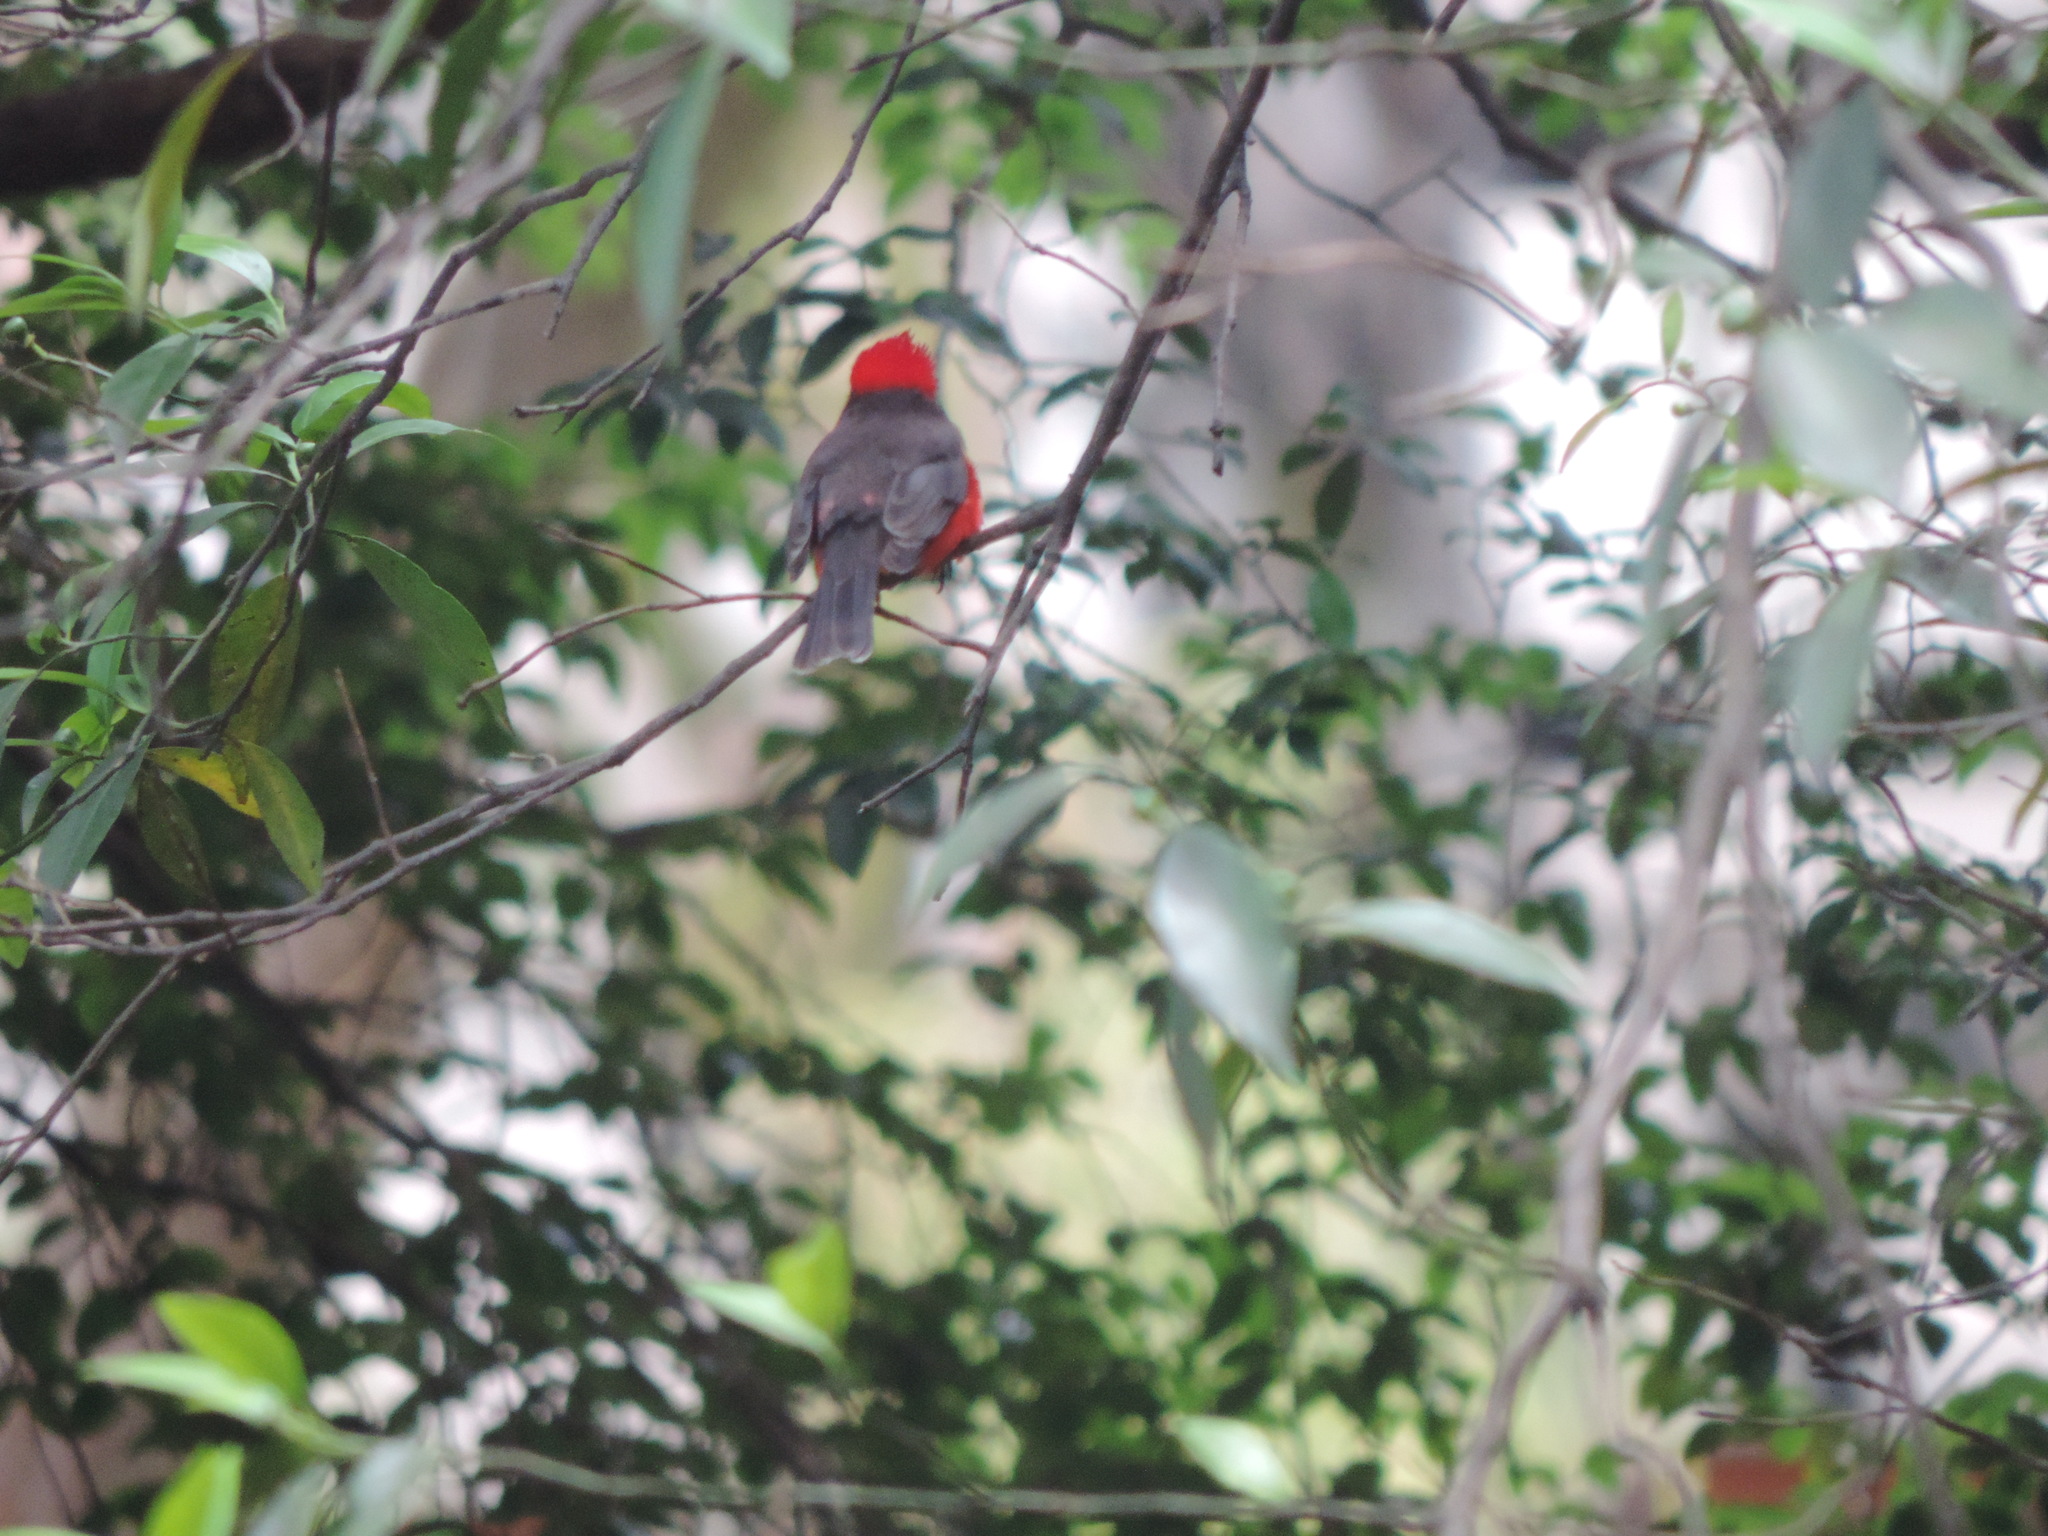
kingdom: Animalia
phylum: Chordata
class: Aves
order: Passeriformes
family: Tyrannidae
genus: Pyrocephalus
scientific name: Pyrocephalus rubinus
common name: Vermilion flycatcher
